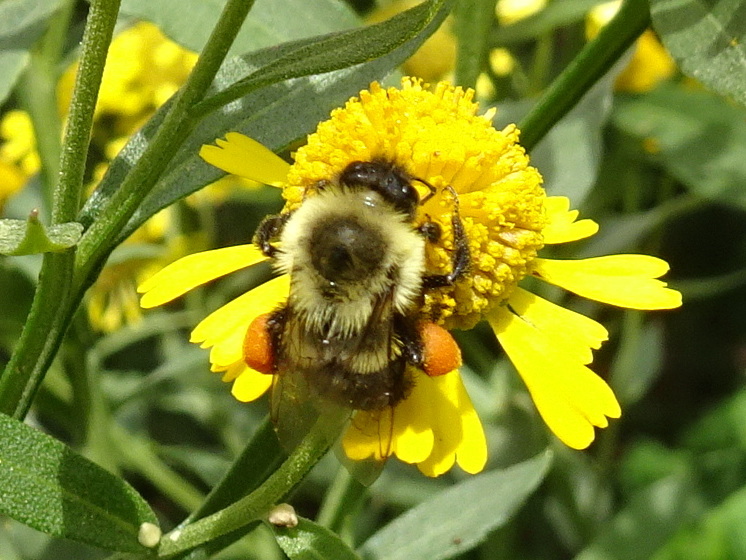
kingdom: Animalia
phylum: Arthropoda
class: Insecta
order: Hymenoptera
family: Apidae
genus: Bombus
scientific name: Bombus impatiens
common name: Common eastern bumble bee
